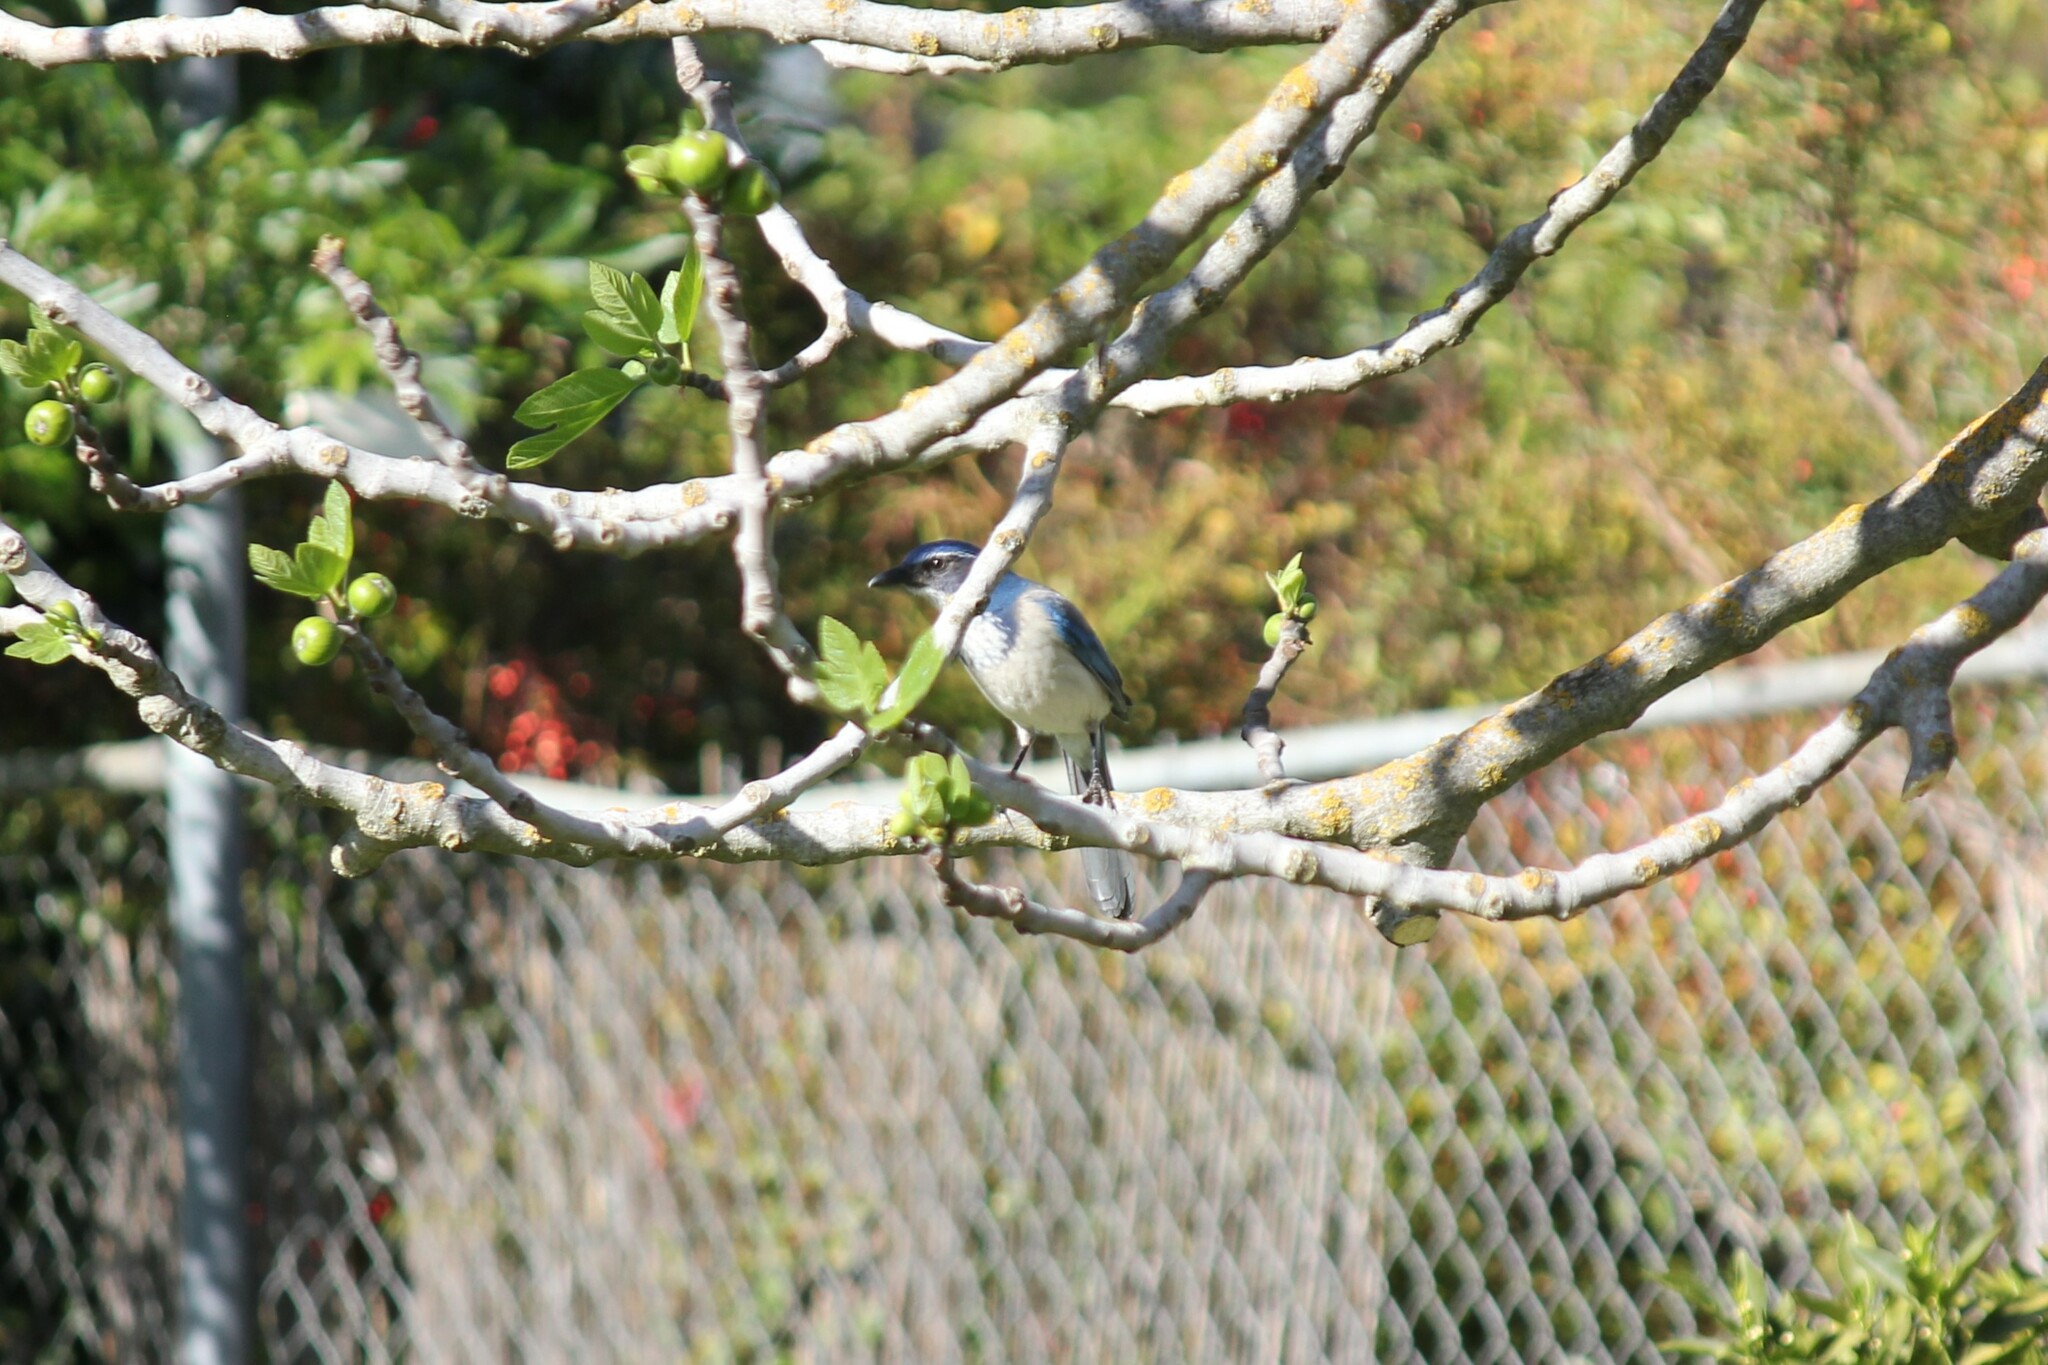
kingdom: Animalia
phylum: Chordata
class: Aves
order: Passeriformes
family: Corvidae
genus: Aphelocoma
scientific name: Aphelocoma californica
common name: California scrub-jay
